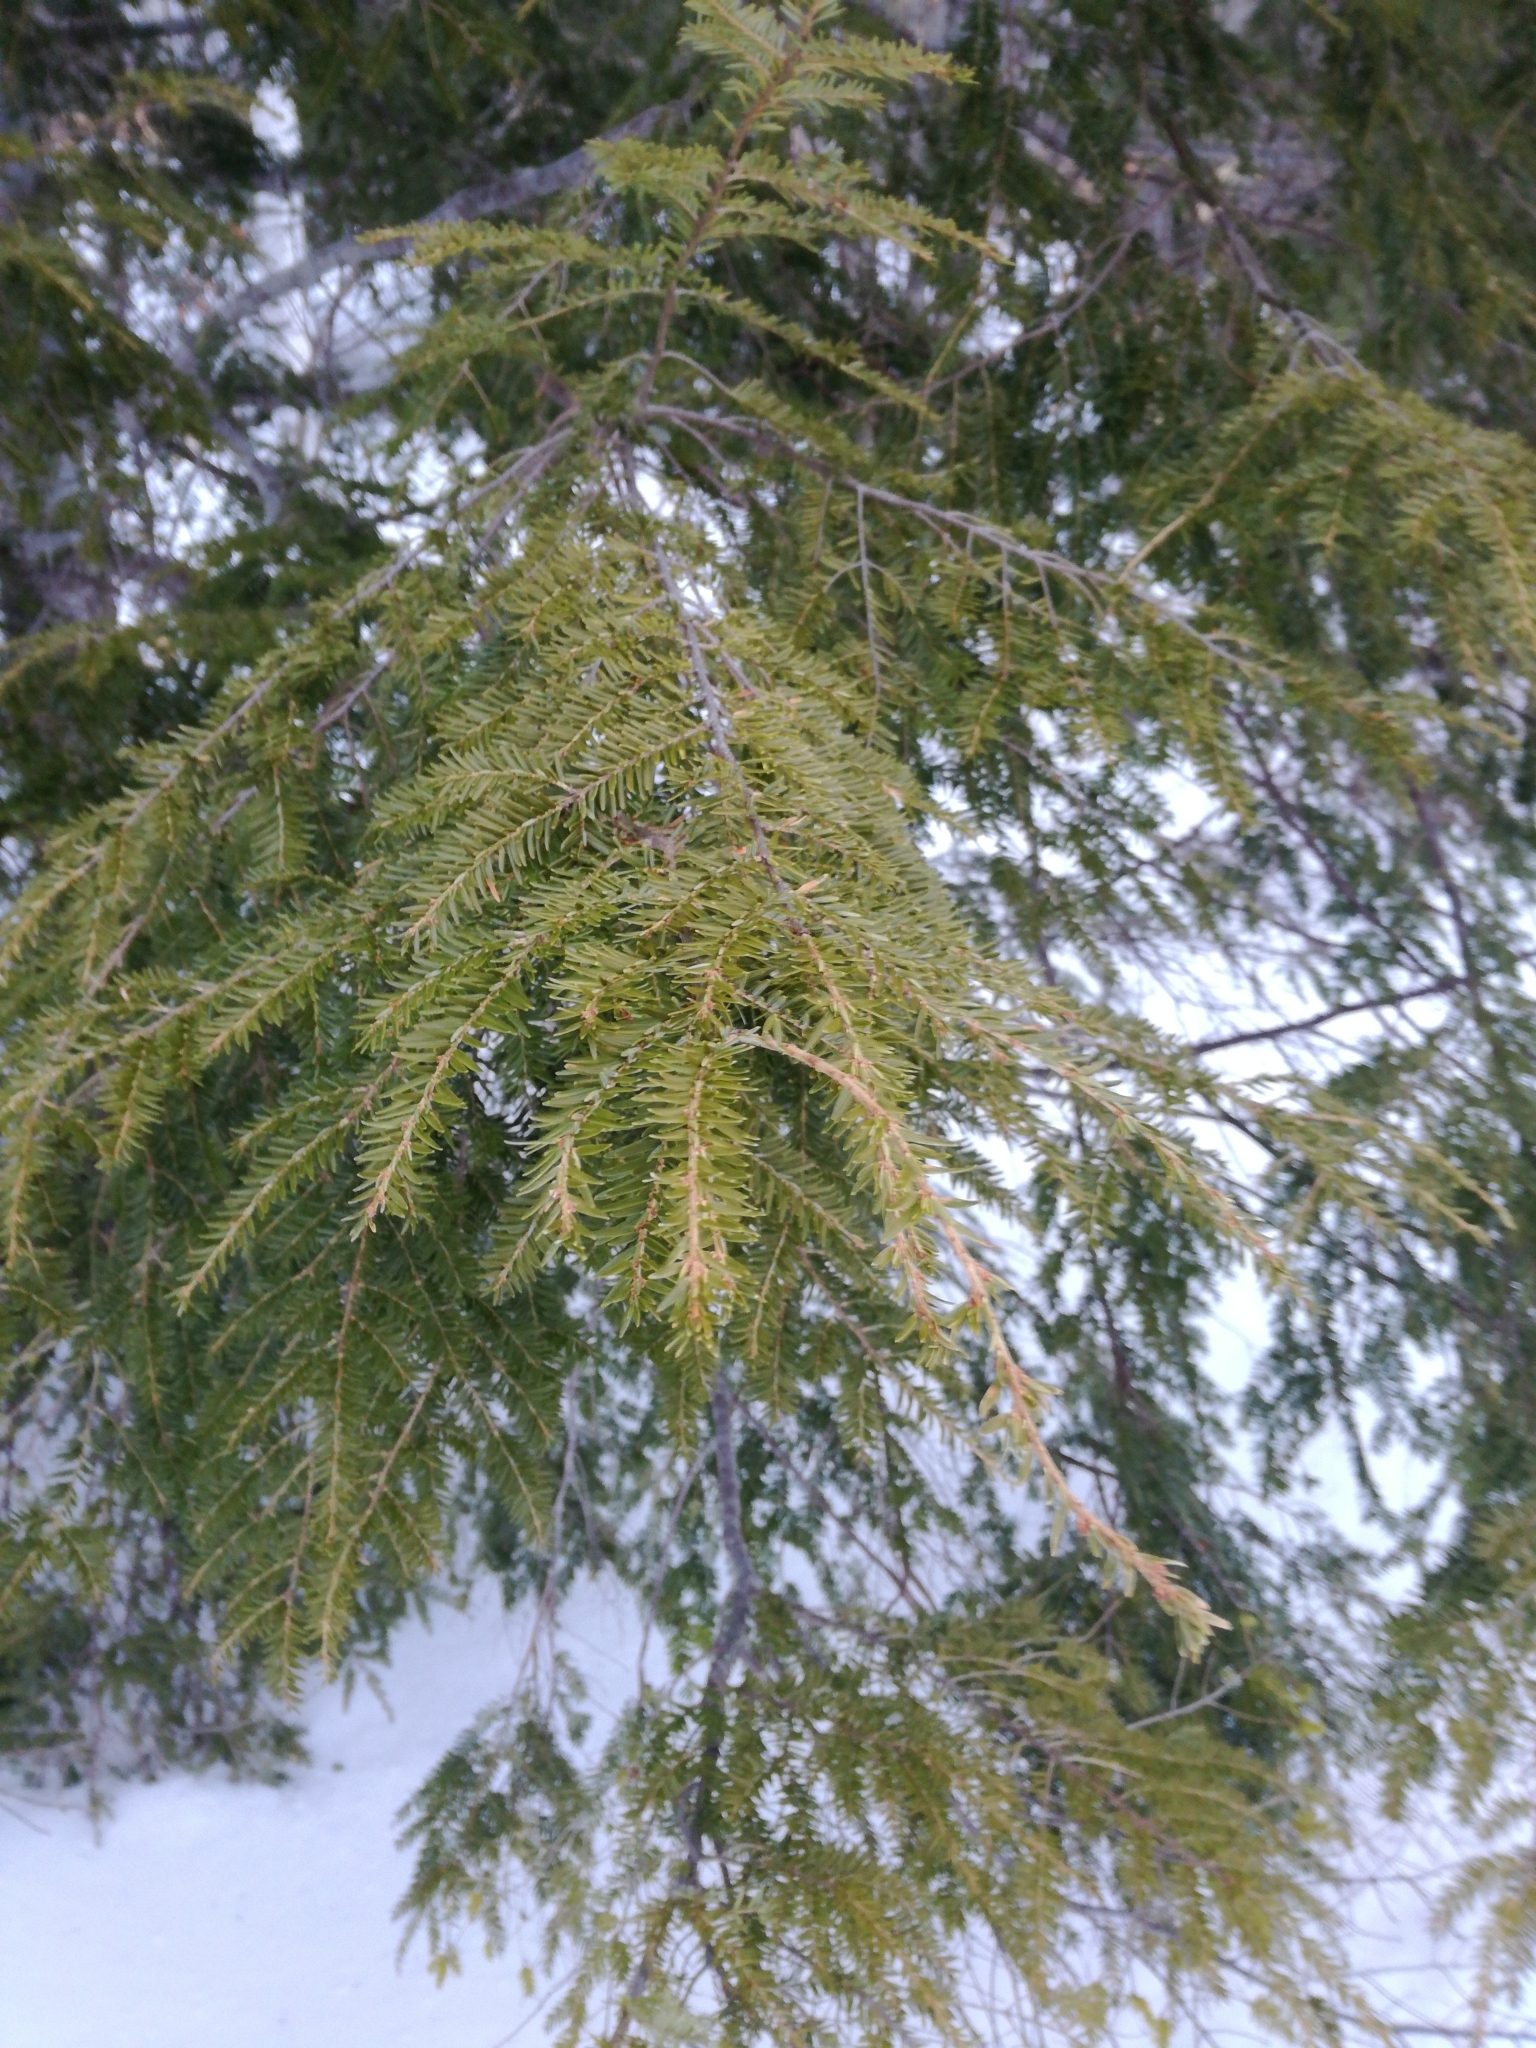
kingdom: Plantae
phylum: Tracheophyta
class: Pinopsida
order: Pinales
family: Pinaceae
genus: Tsuga
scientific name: Tsuga canadensis
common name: Eastern hemlock
